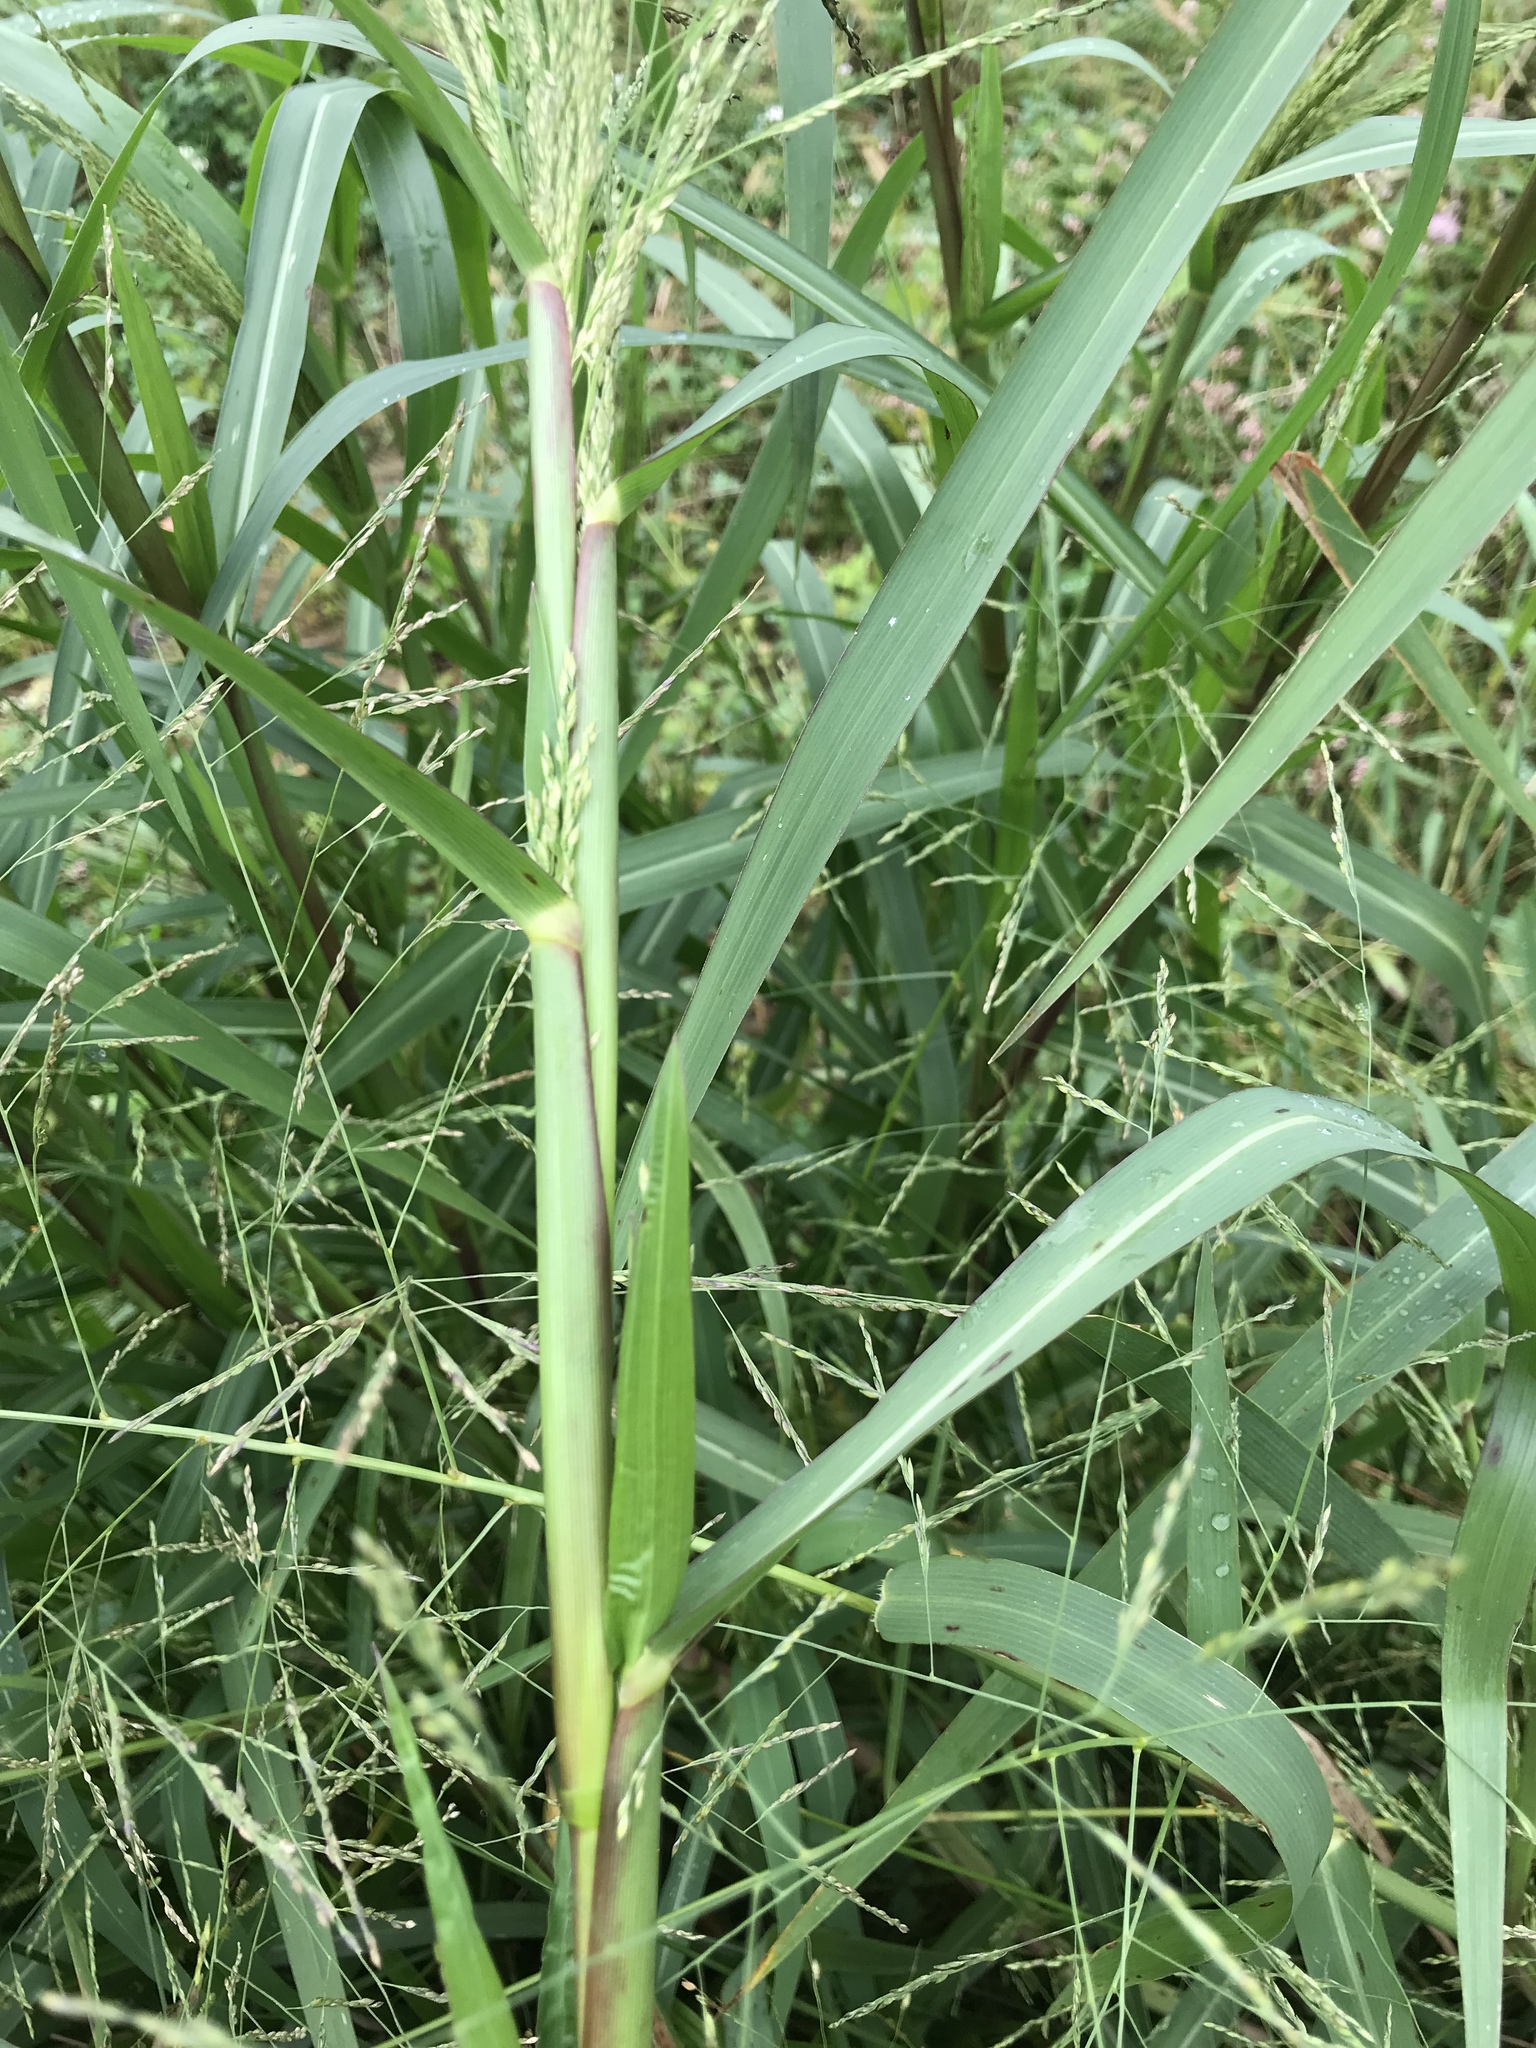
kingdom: Plantae
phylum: Tracheophyta
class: Liliopsida
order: Poales
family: Poaceae
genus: Panicum
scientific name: Panicum dichotomiflorum
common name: Autumn millet
